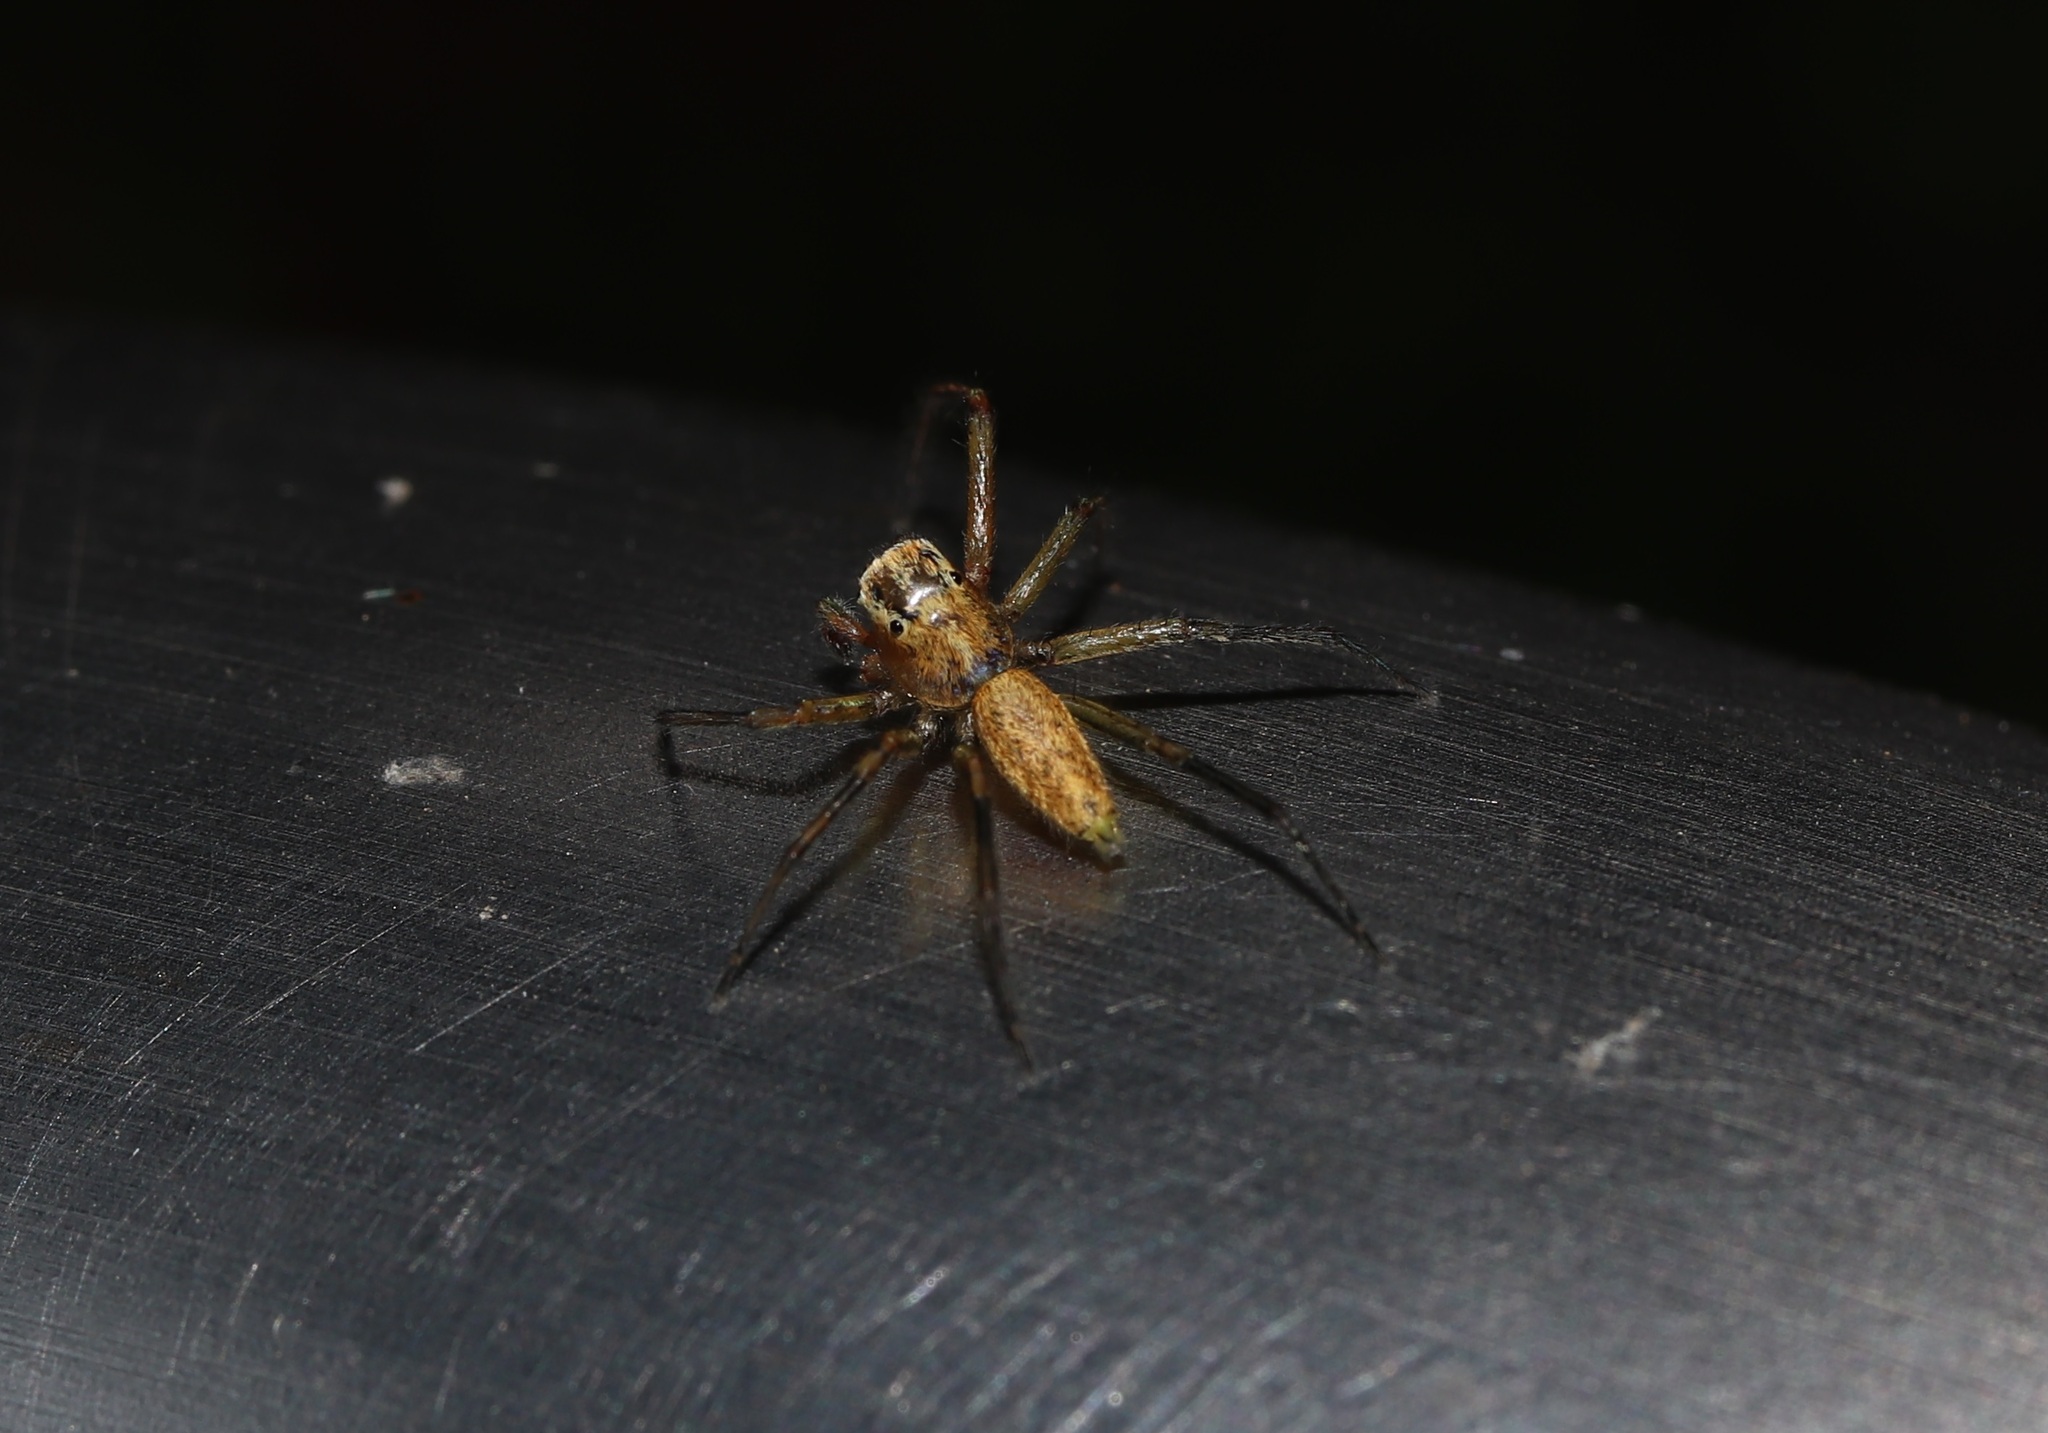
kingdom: Animalia
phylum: Arthropoda
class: Arachnida
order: Araneae
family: Salticidae
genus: Phintella
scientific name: Phintella abnormis
